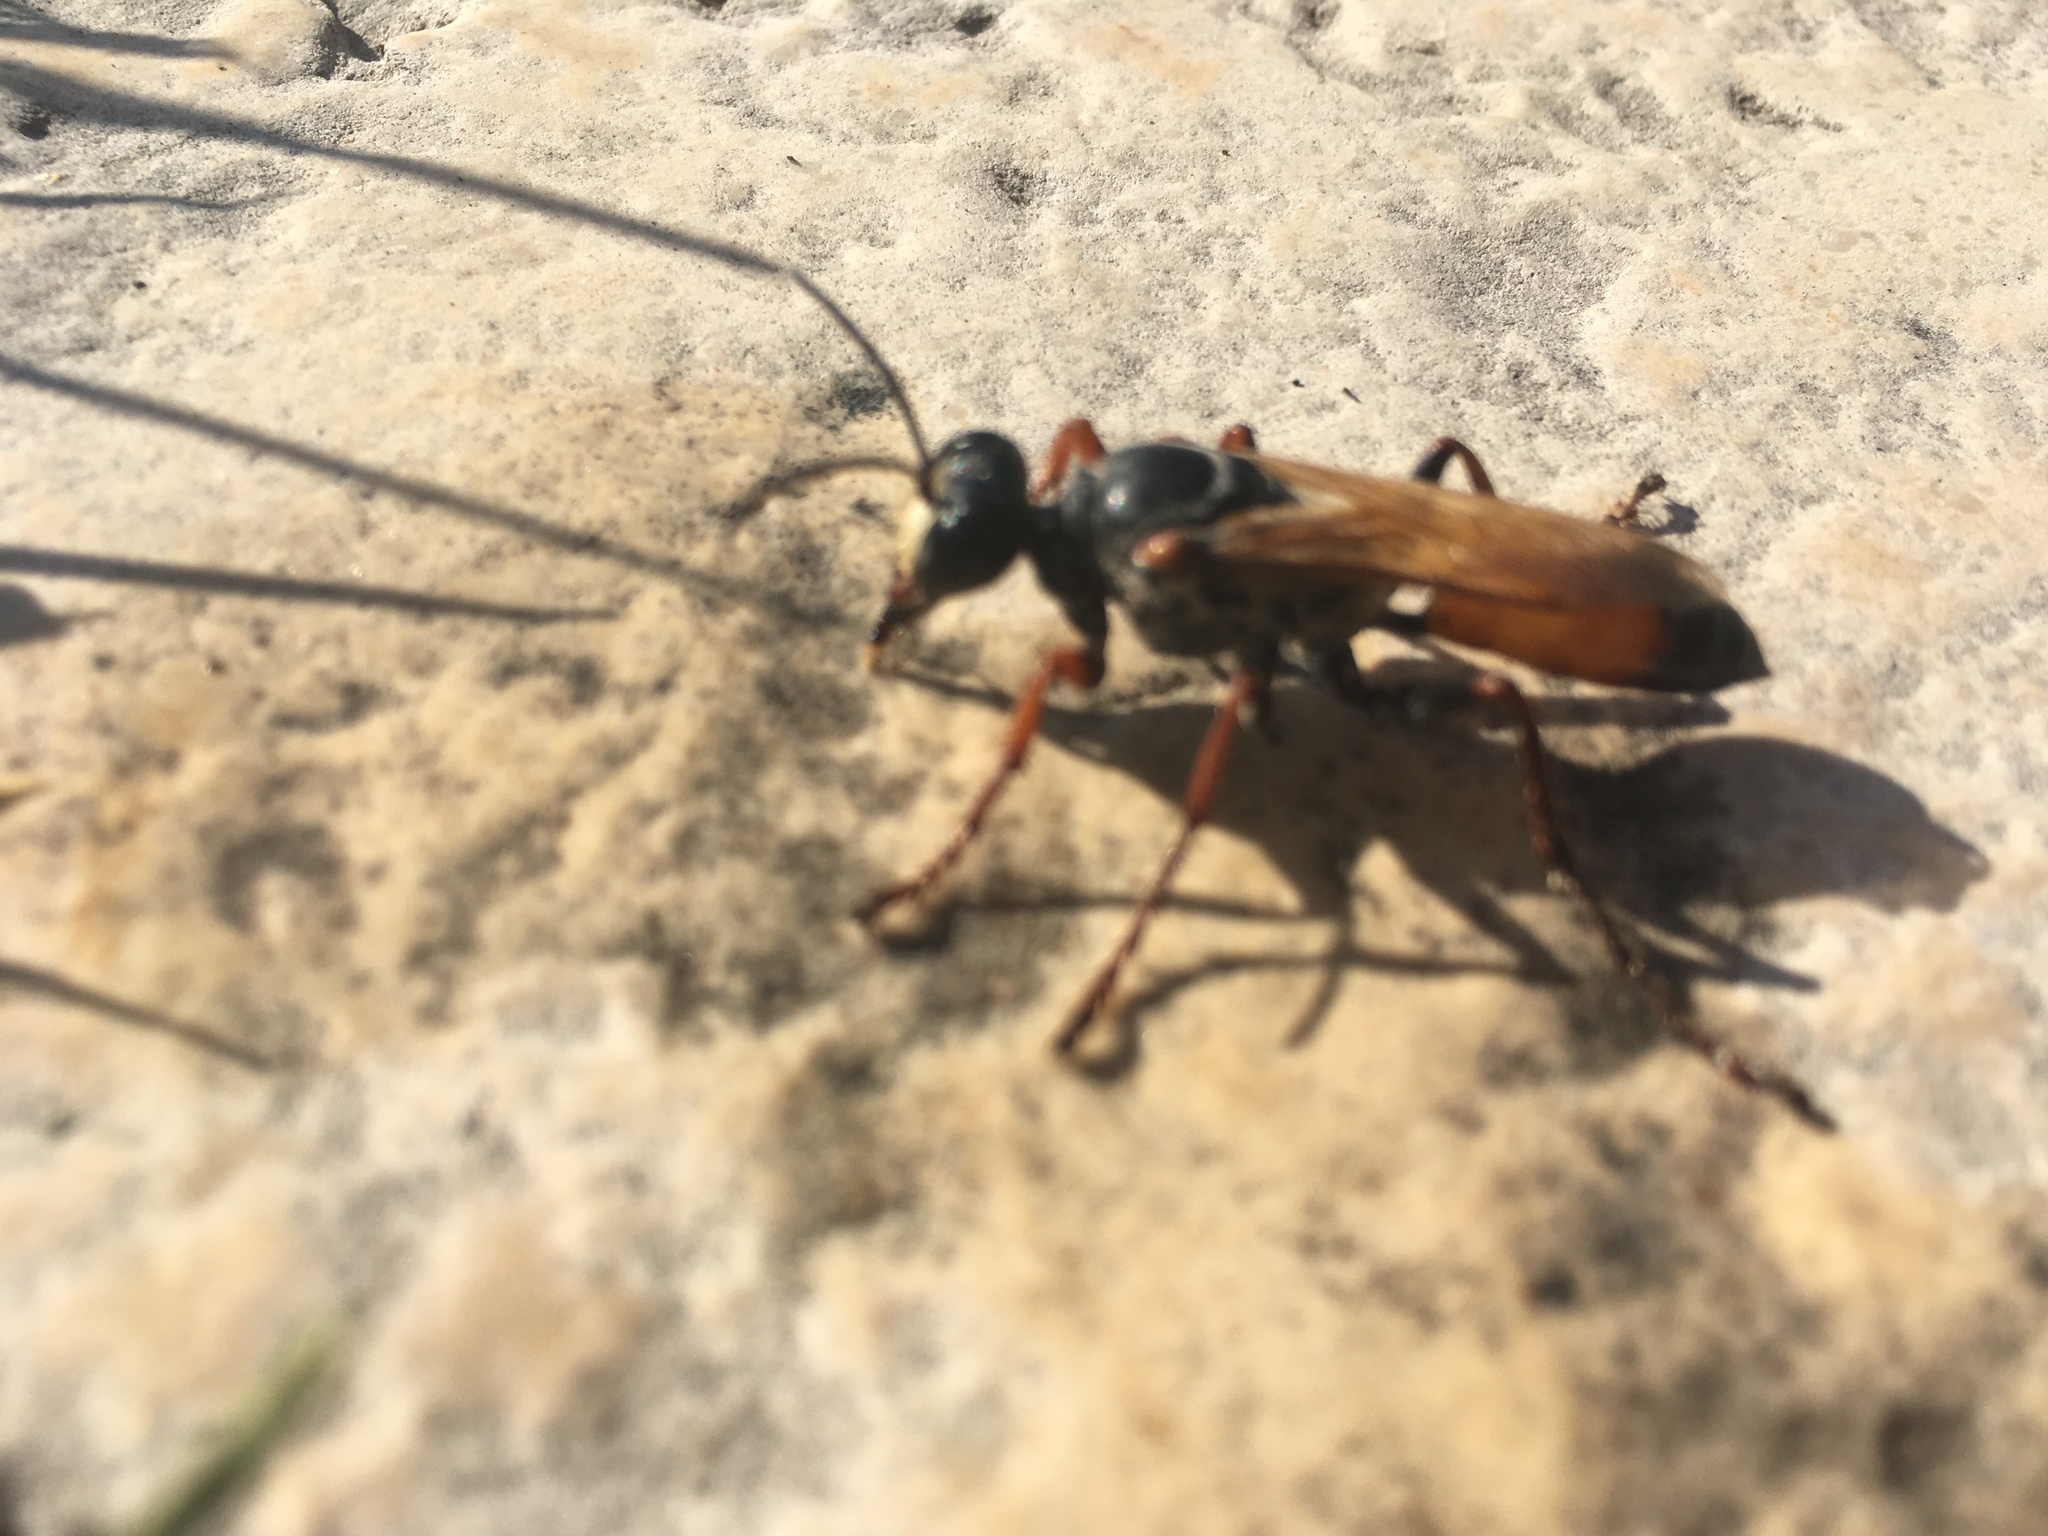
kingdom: Animalia
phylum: Arthropoda
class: Insecta
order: Hymenoptera
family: Sphecidae
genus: Sphex
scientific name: Sphex
